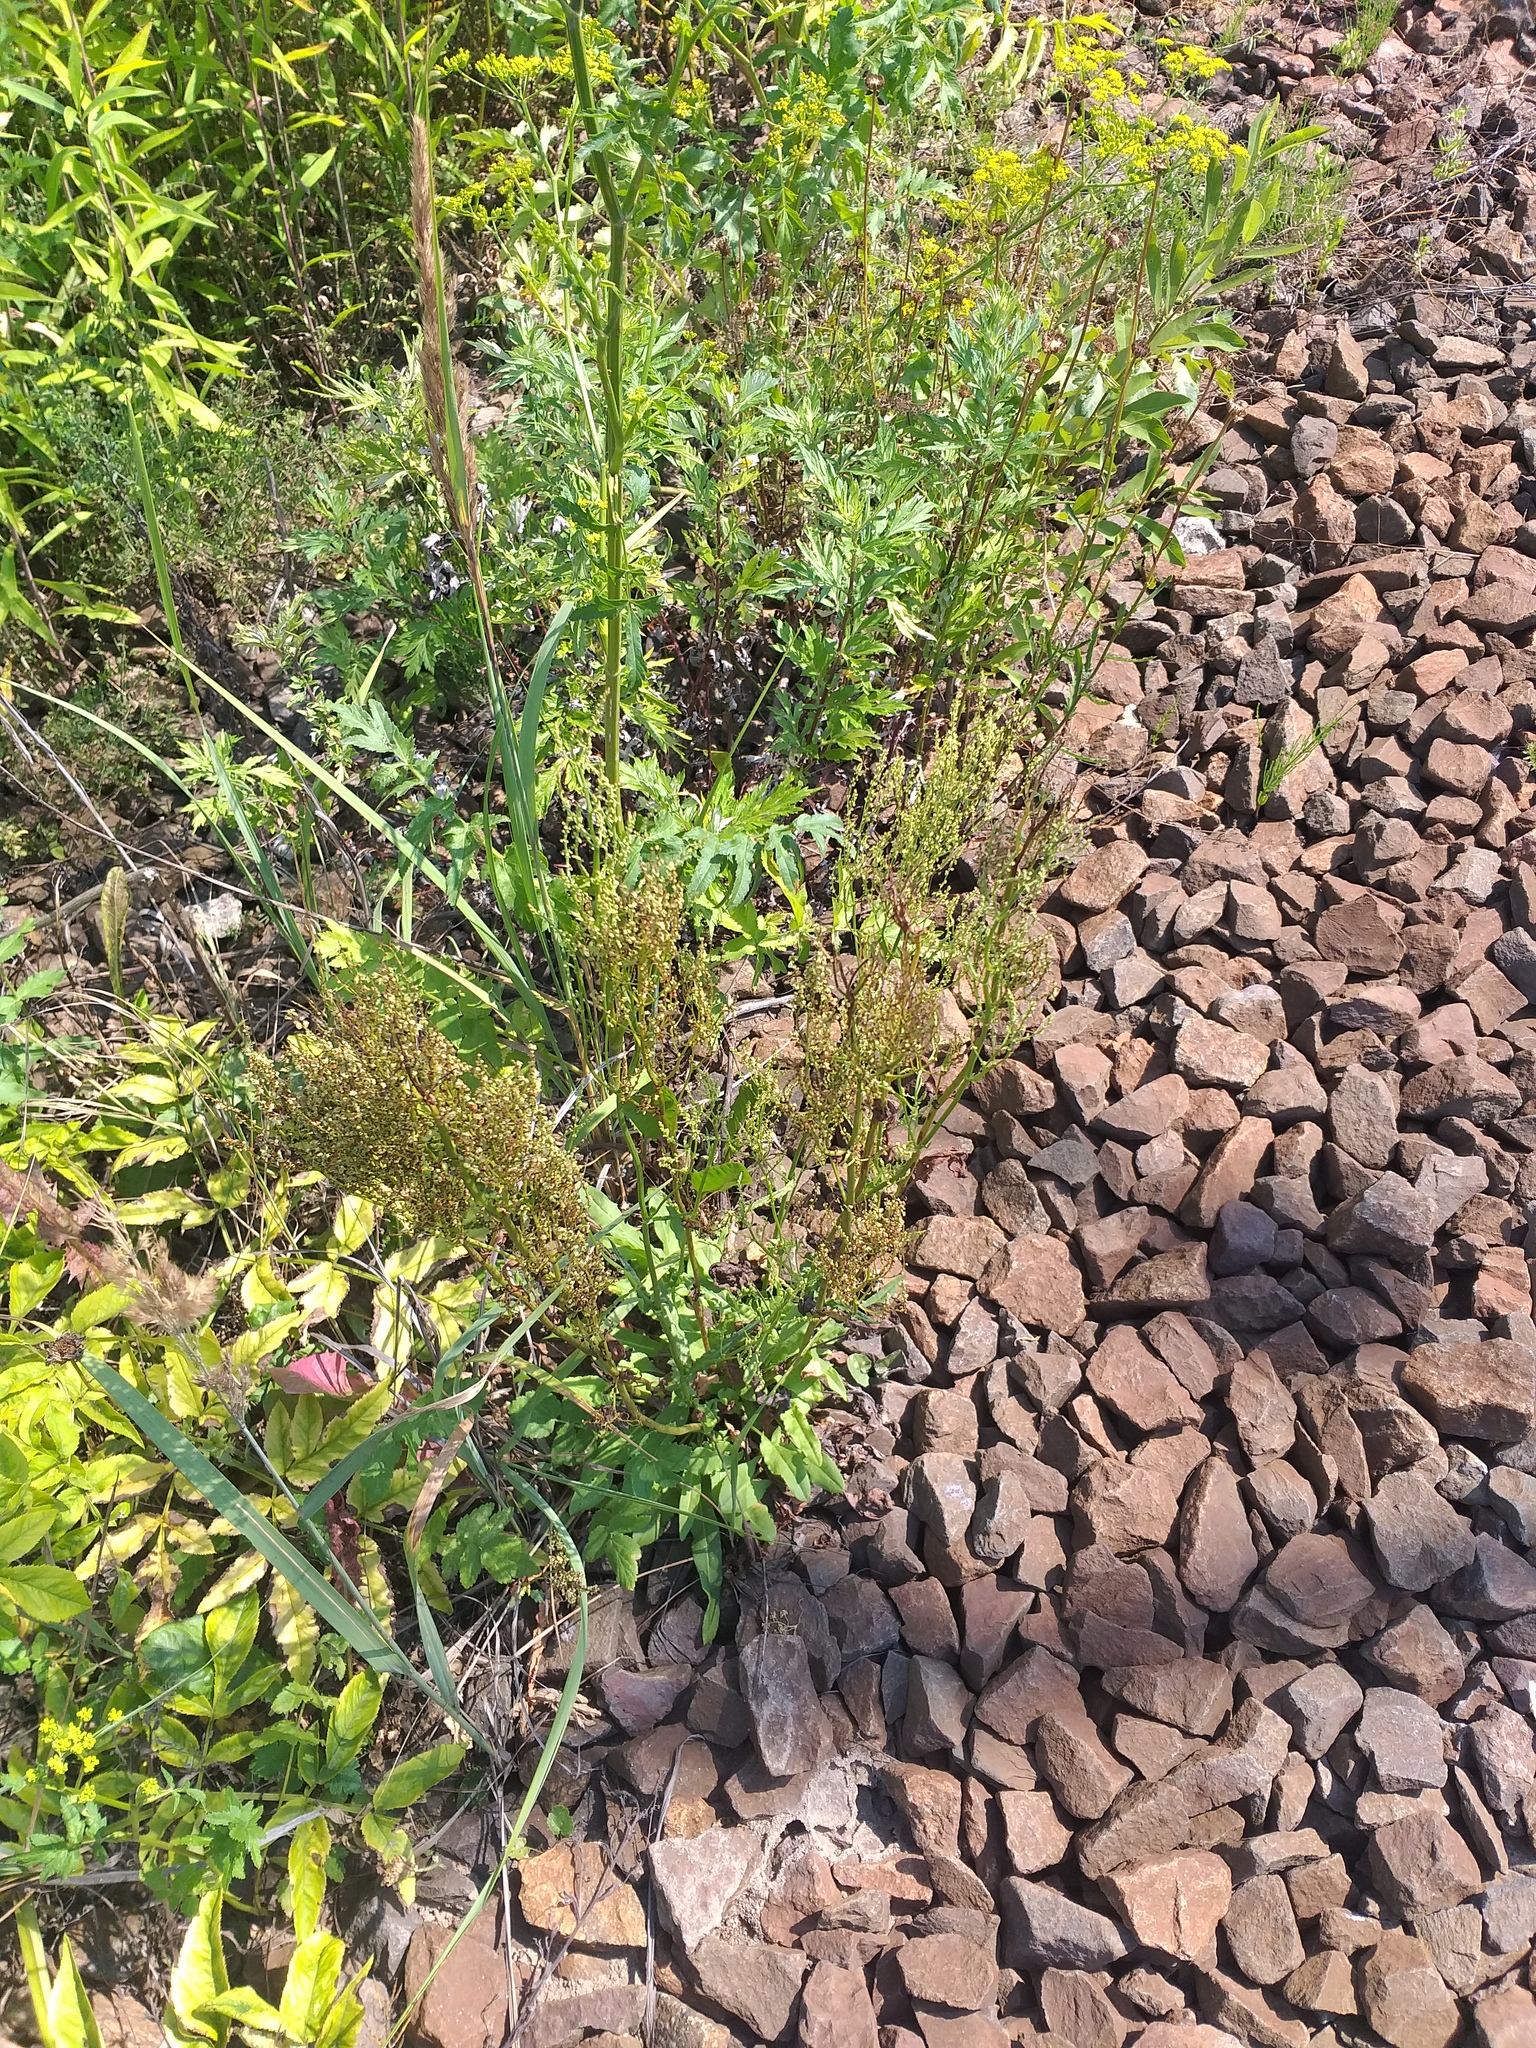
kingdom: Plantae
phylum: Tracheophyta
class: Magnoliopsida
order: Caryophyllales
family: Polygonaceae
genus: Rumex
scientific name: Rumex thyrsiflorus
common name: Garden sorrel
